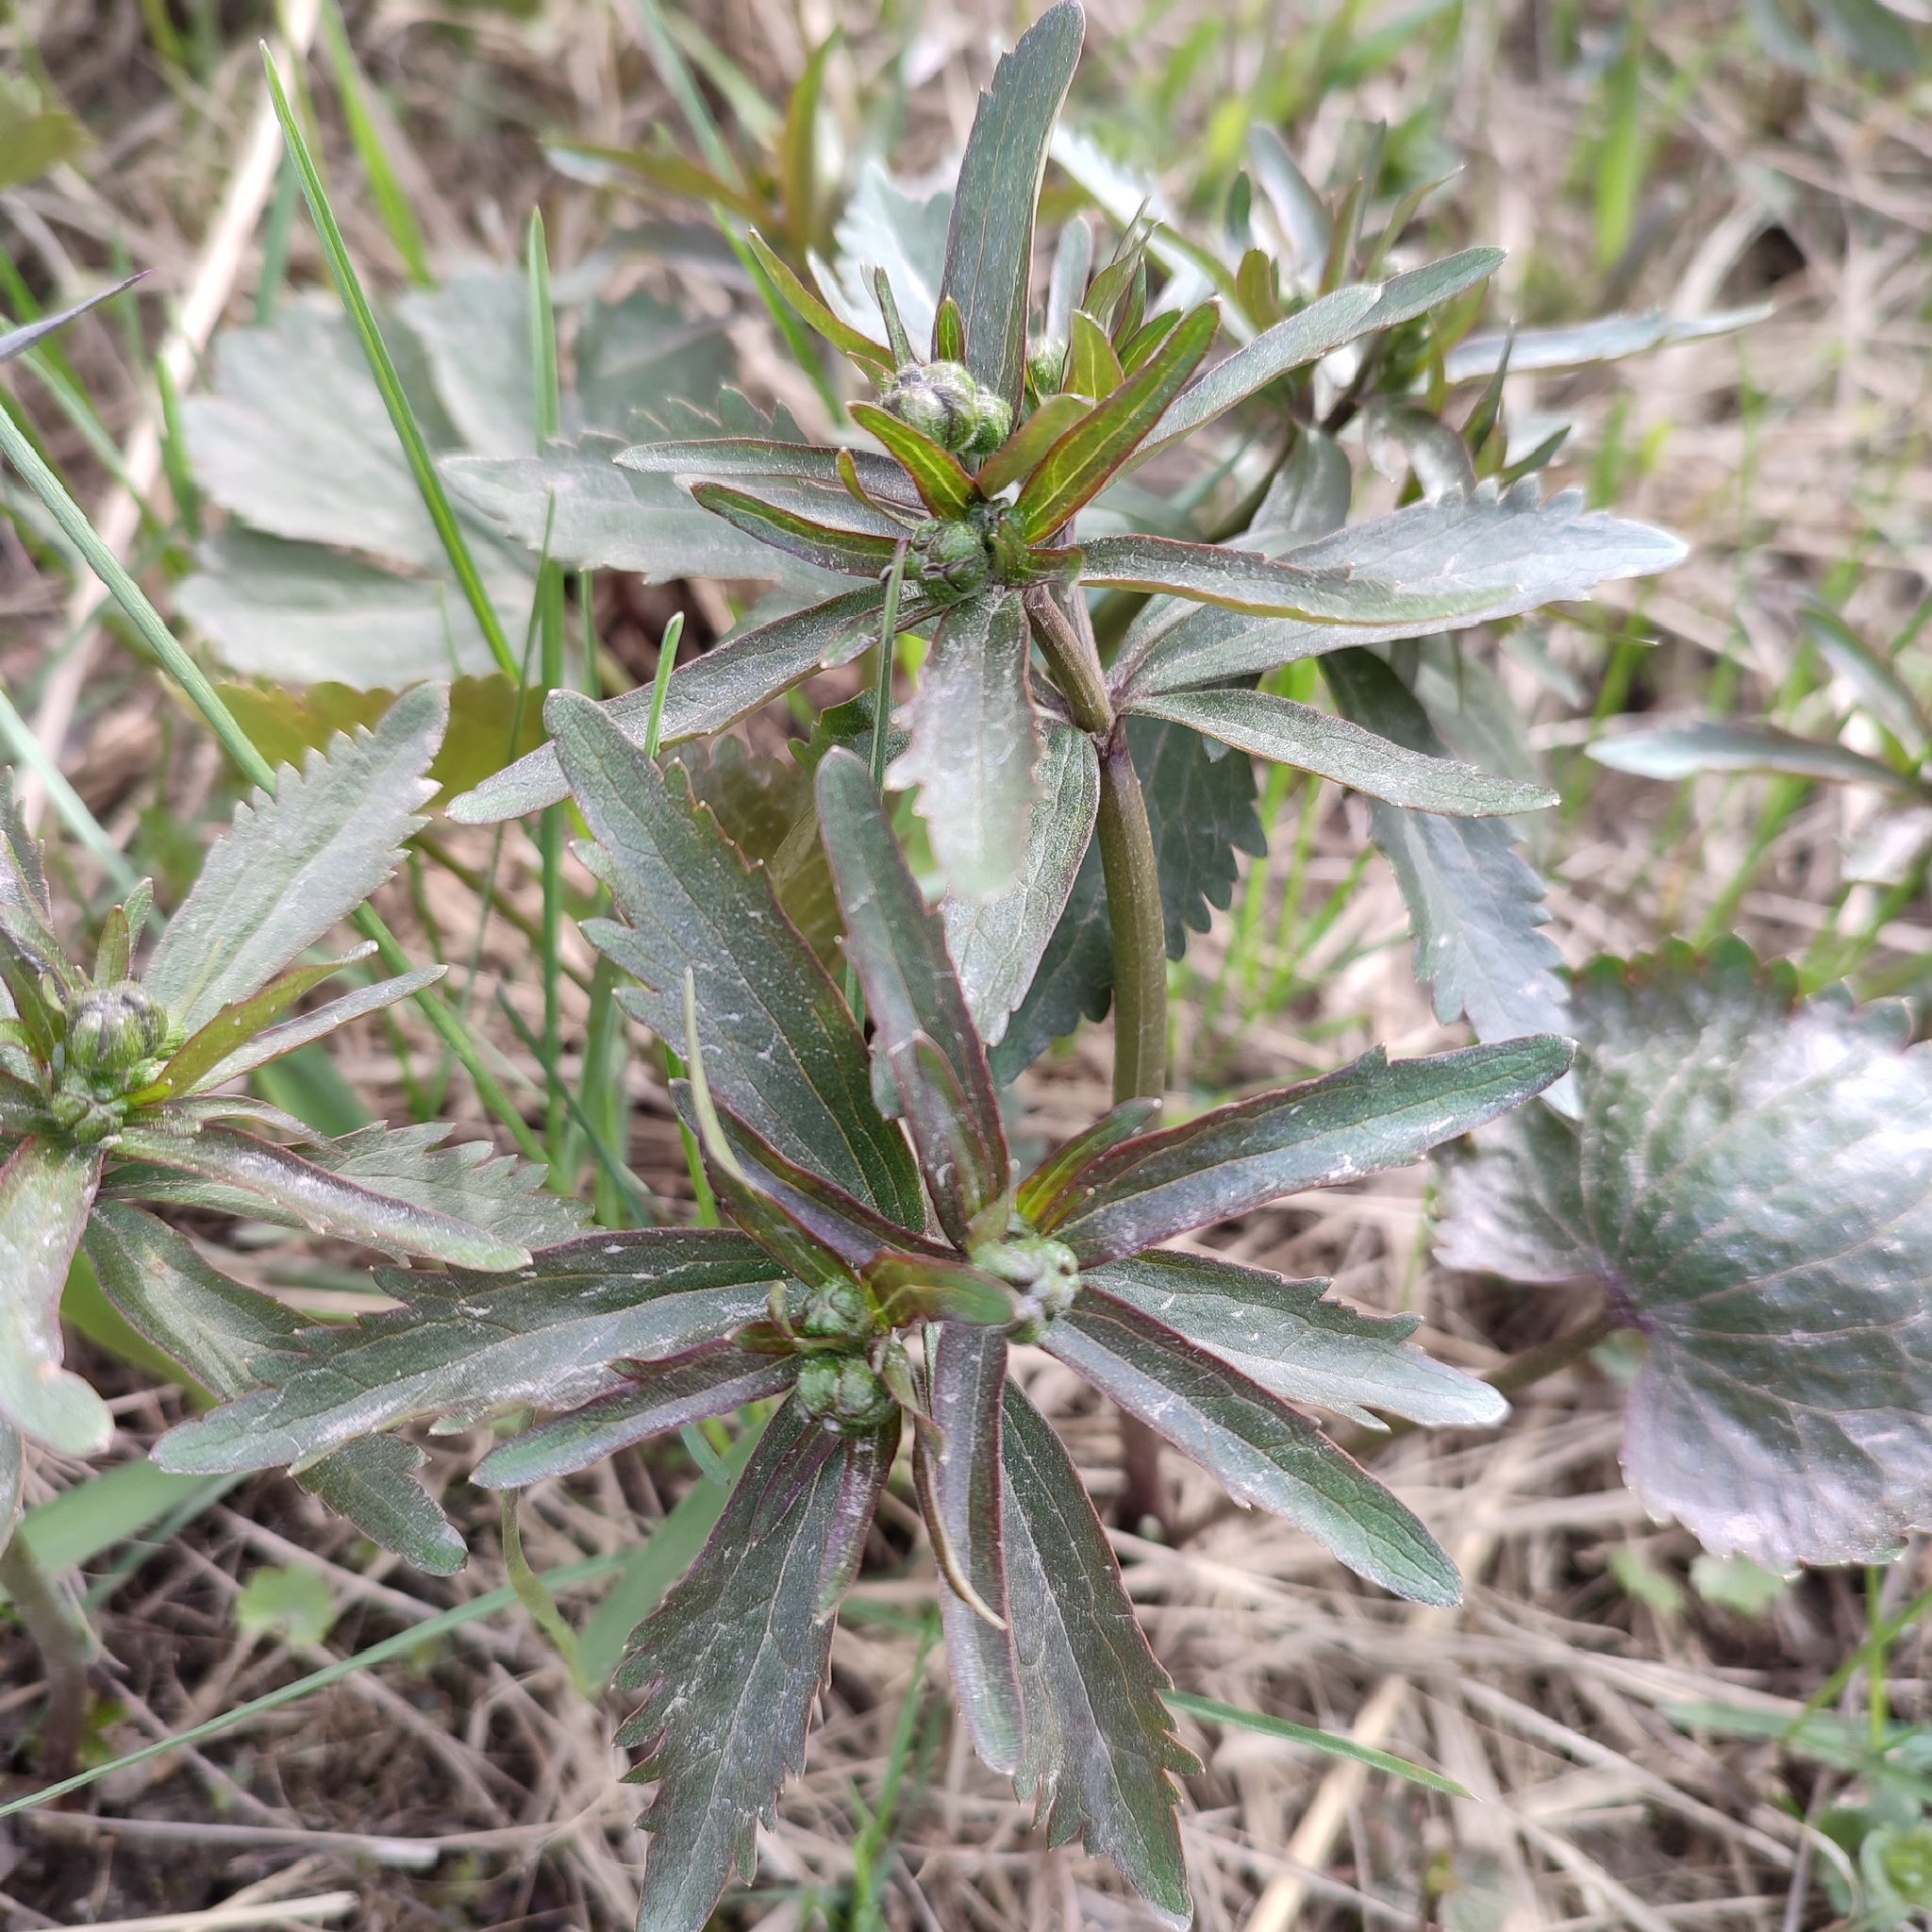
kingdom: Plantae
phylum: Tracheophyta
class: Magnoliopsida
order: Ranunculales
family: Ranunculaceae
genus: Ranunculus
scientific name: Ranunculus cassubicus
